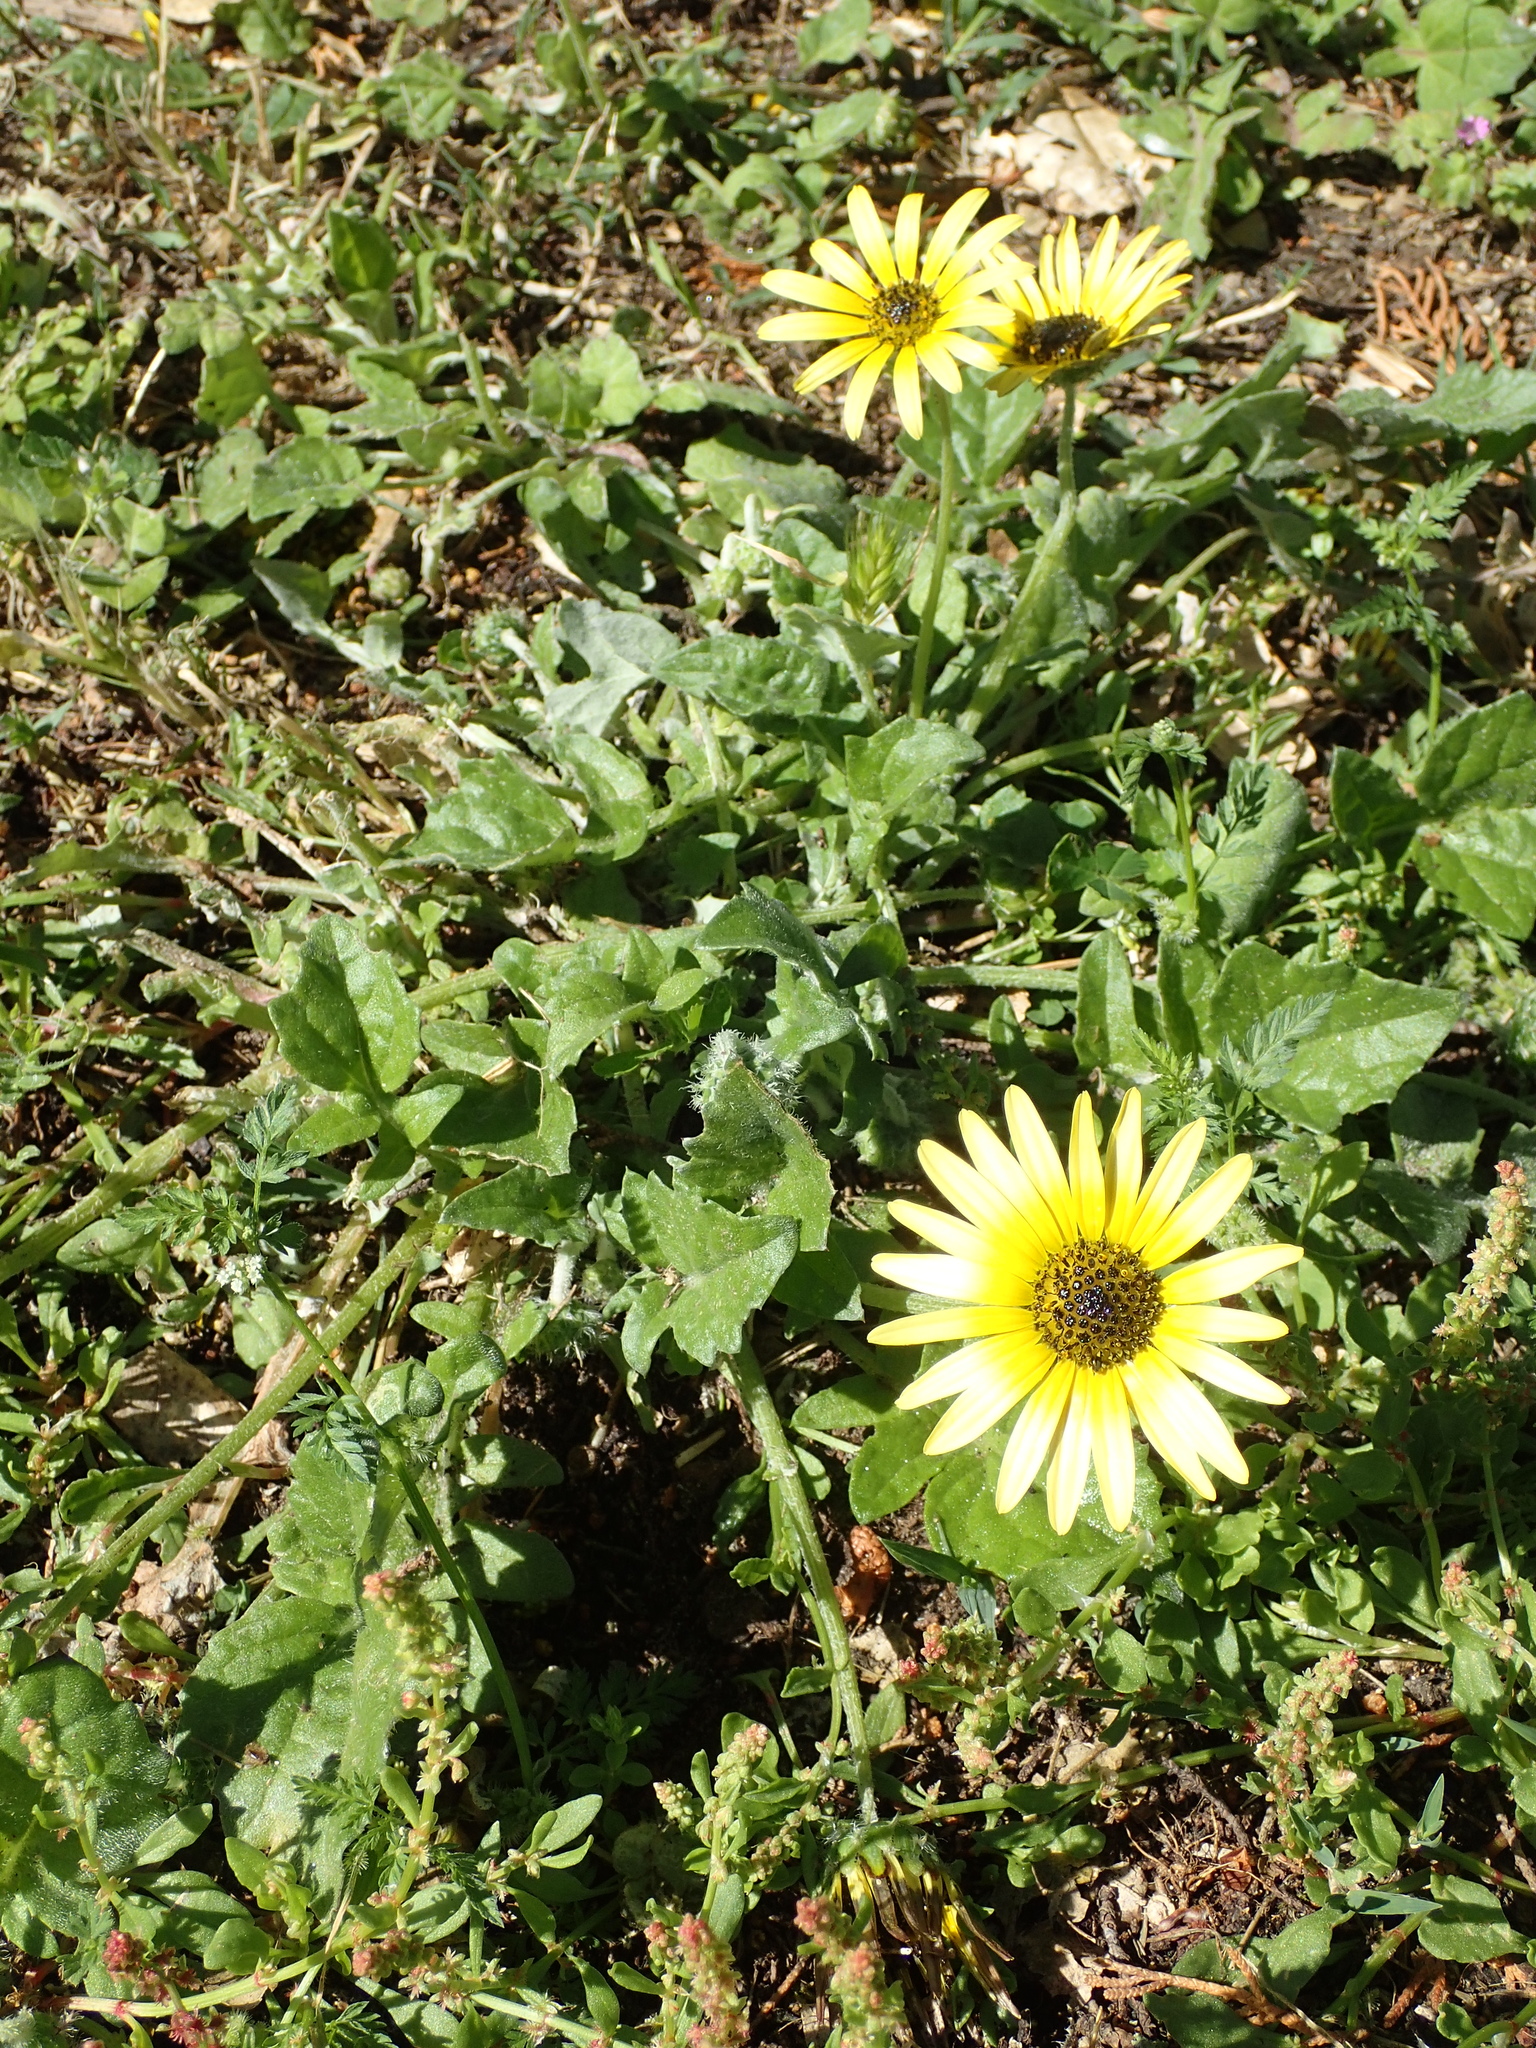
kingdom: Plantae
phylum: Tracheophyta
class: Magnoliopsida
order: Asterales
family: Asteraceae
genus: Arctotheca
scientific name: Arctotheca calendula
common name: Capeweed
